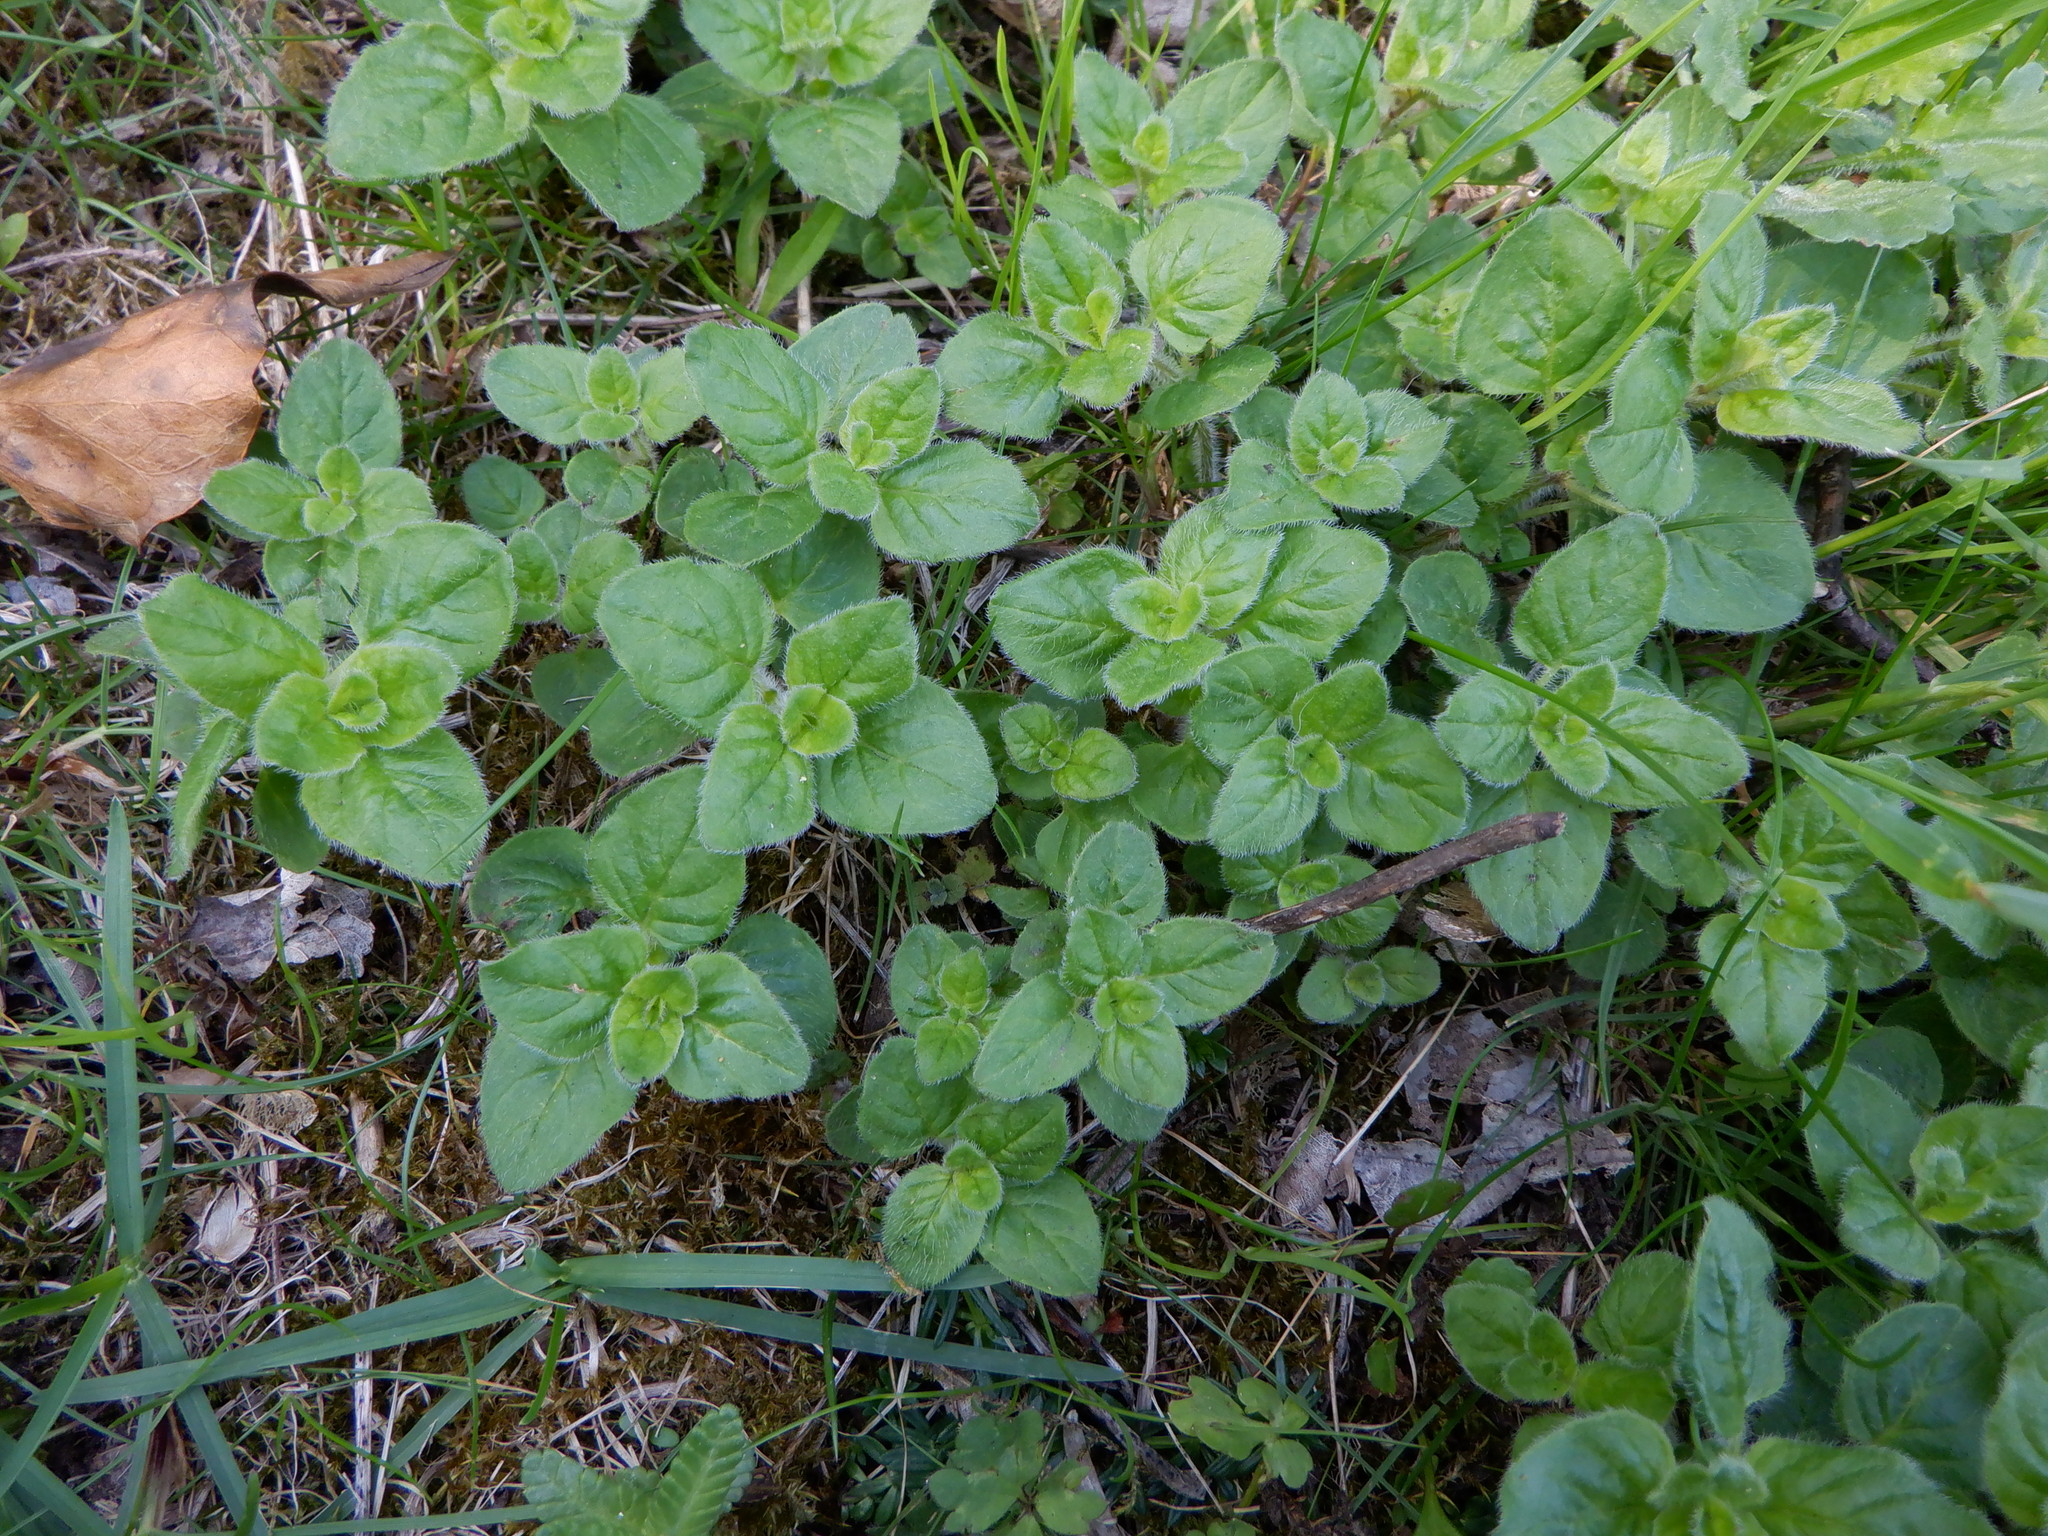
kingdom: Plantae
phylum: Tracheophyta
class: Magnoliopsida
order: Lamiales
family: Lamiaceae
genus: Origanum
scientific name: Origanum vulgare
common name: Wild marjoram
